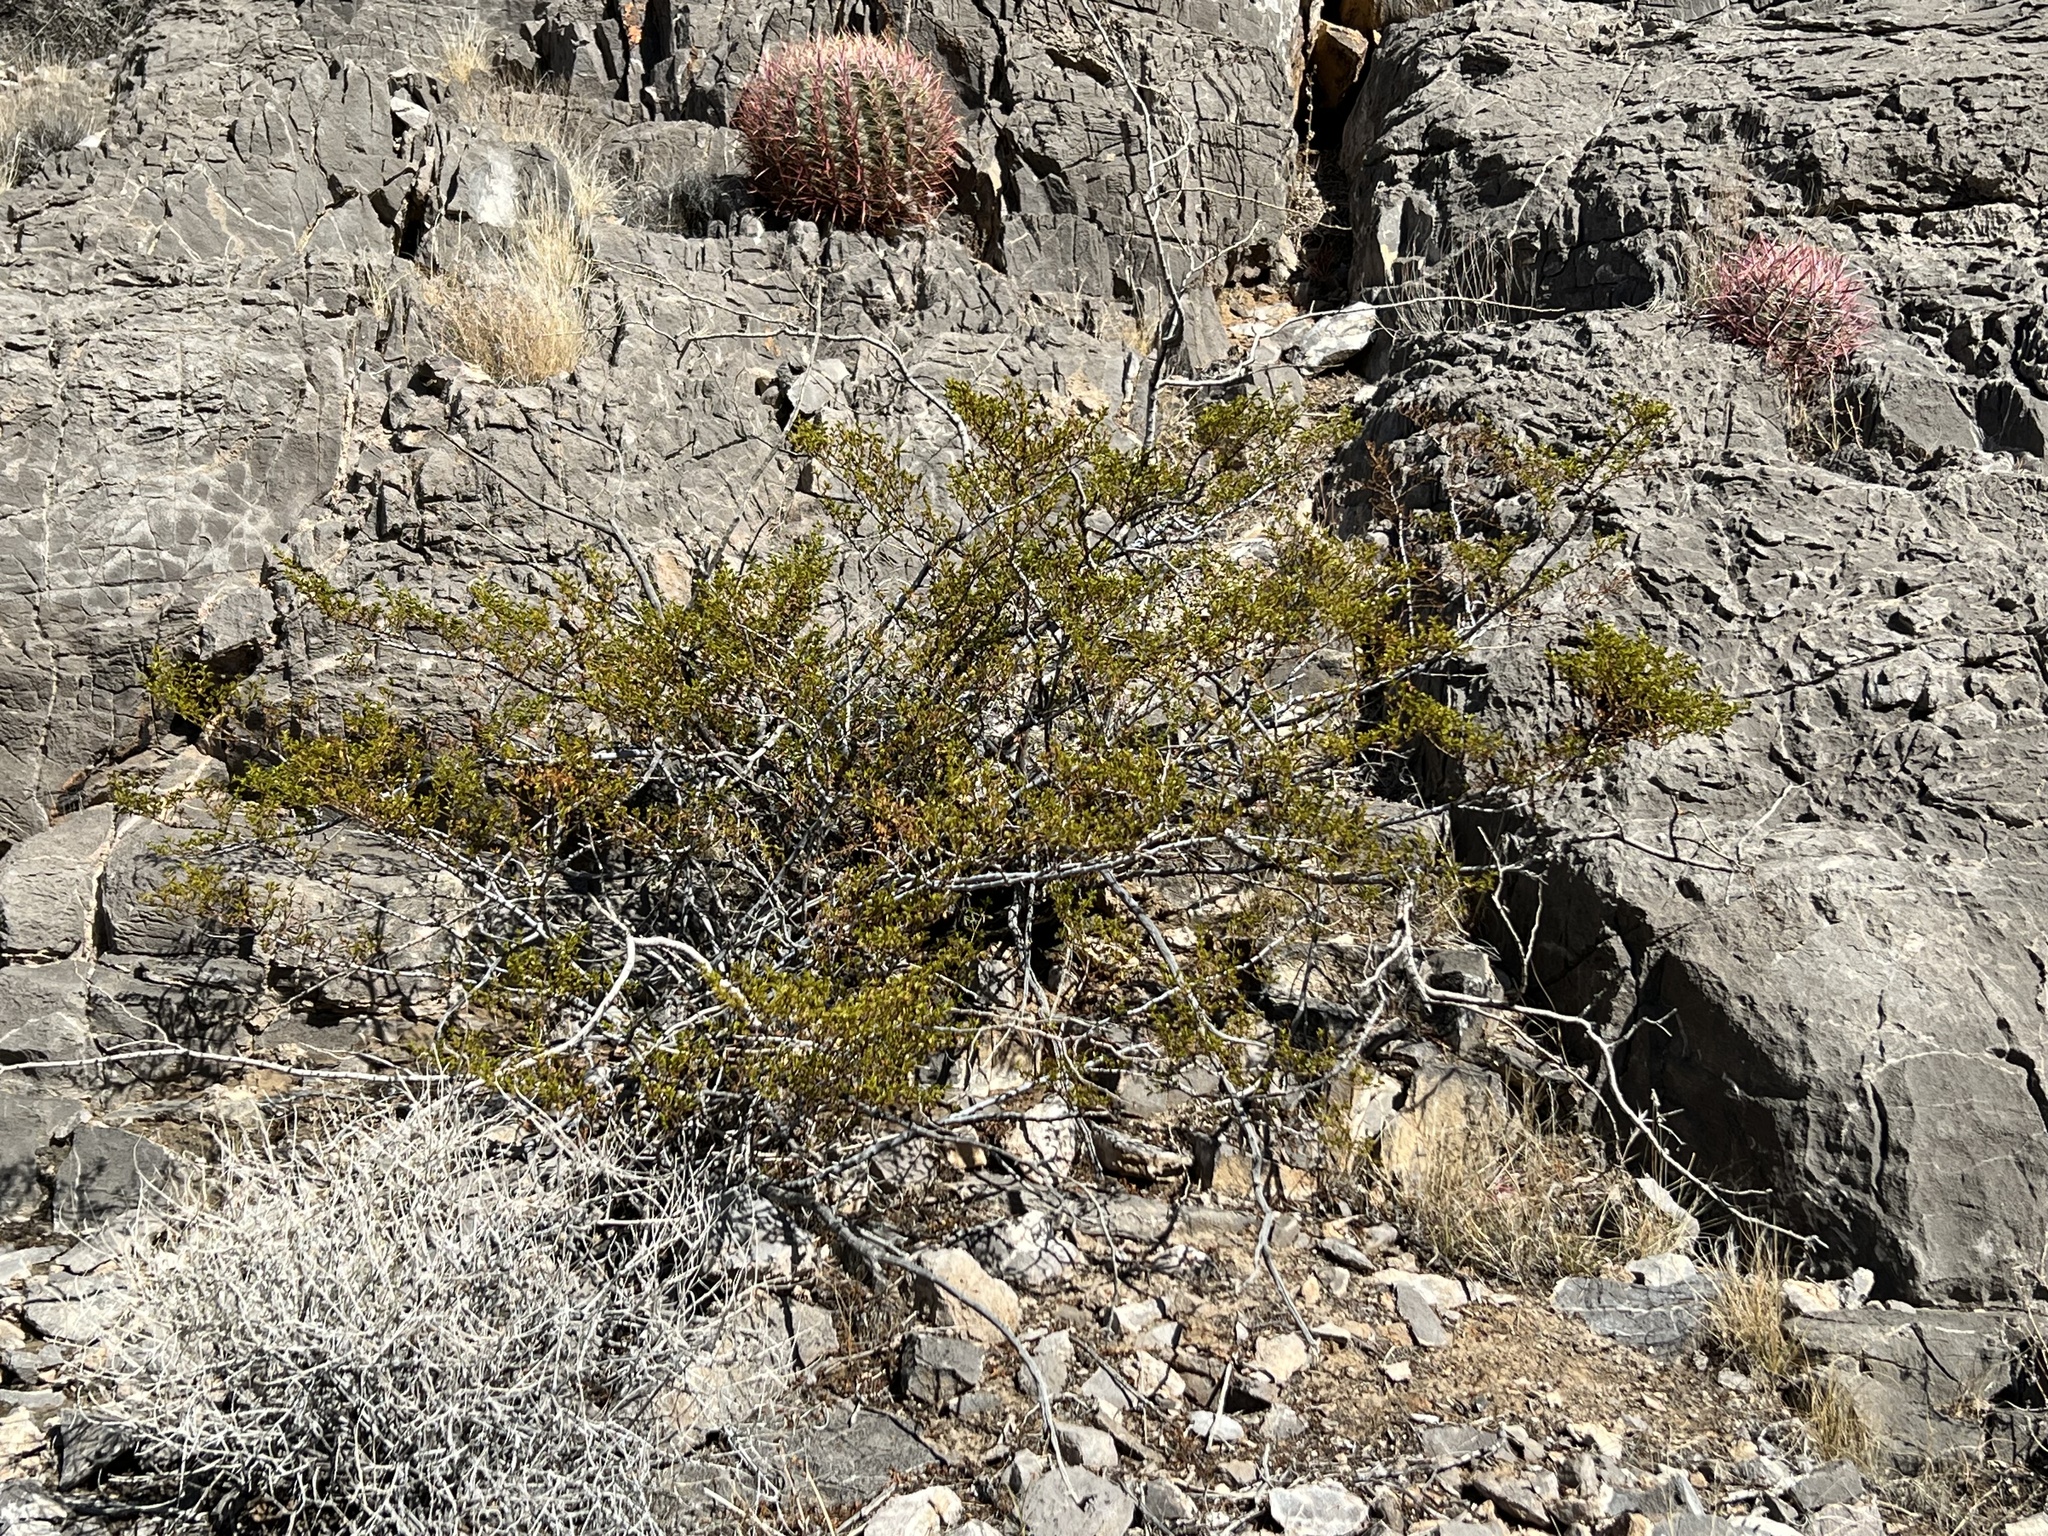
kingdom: Plantae
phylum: Tracheophyta
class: Magnoliopsida
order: Zygophyllales
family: Zygophyllaceae
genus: Larrea
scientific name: Larrea tridentata
